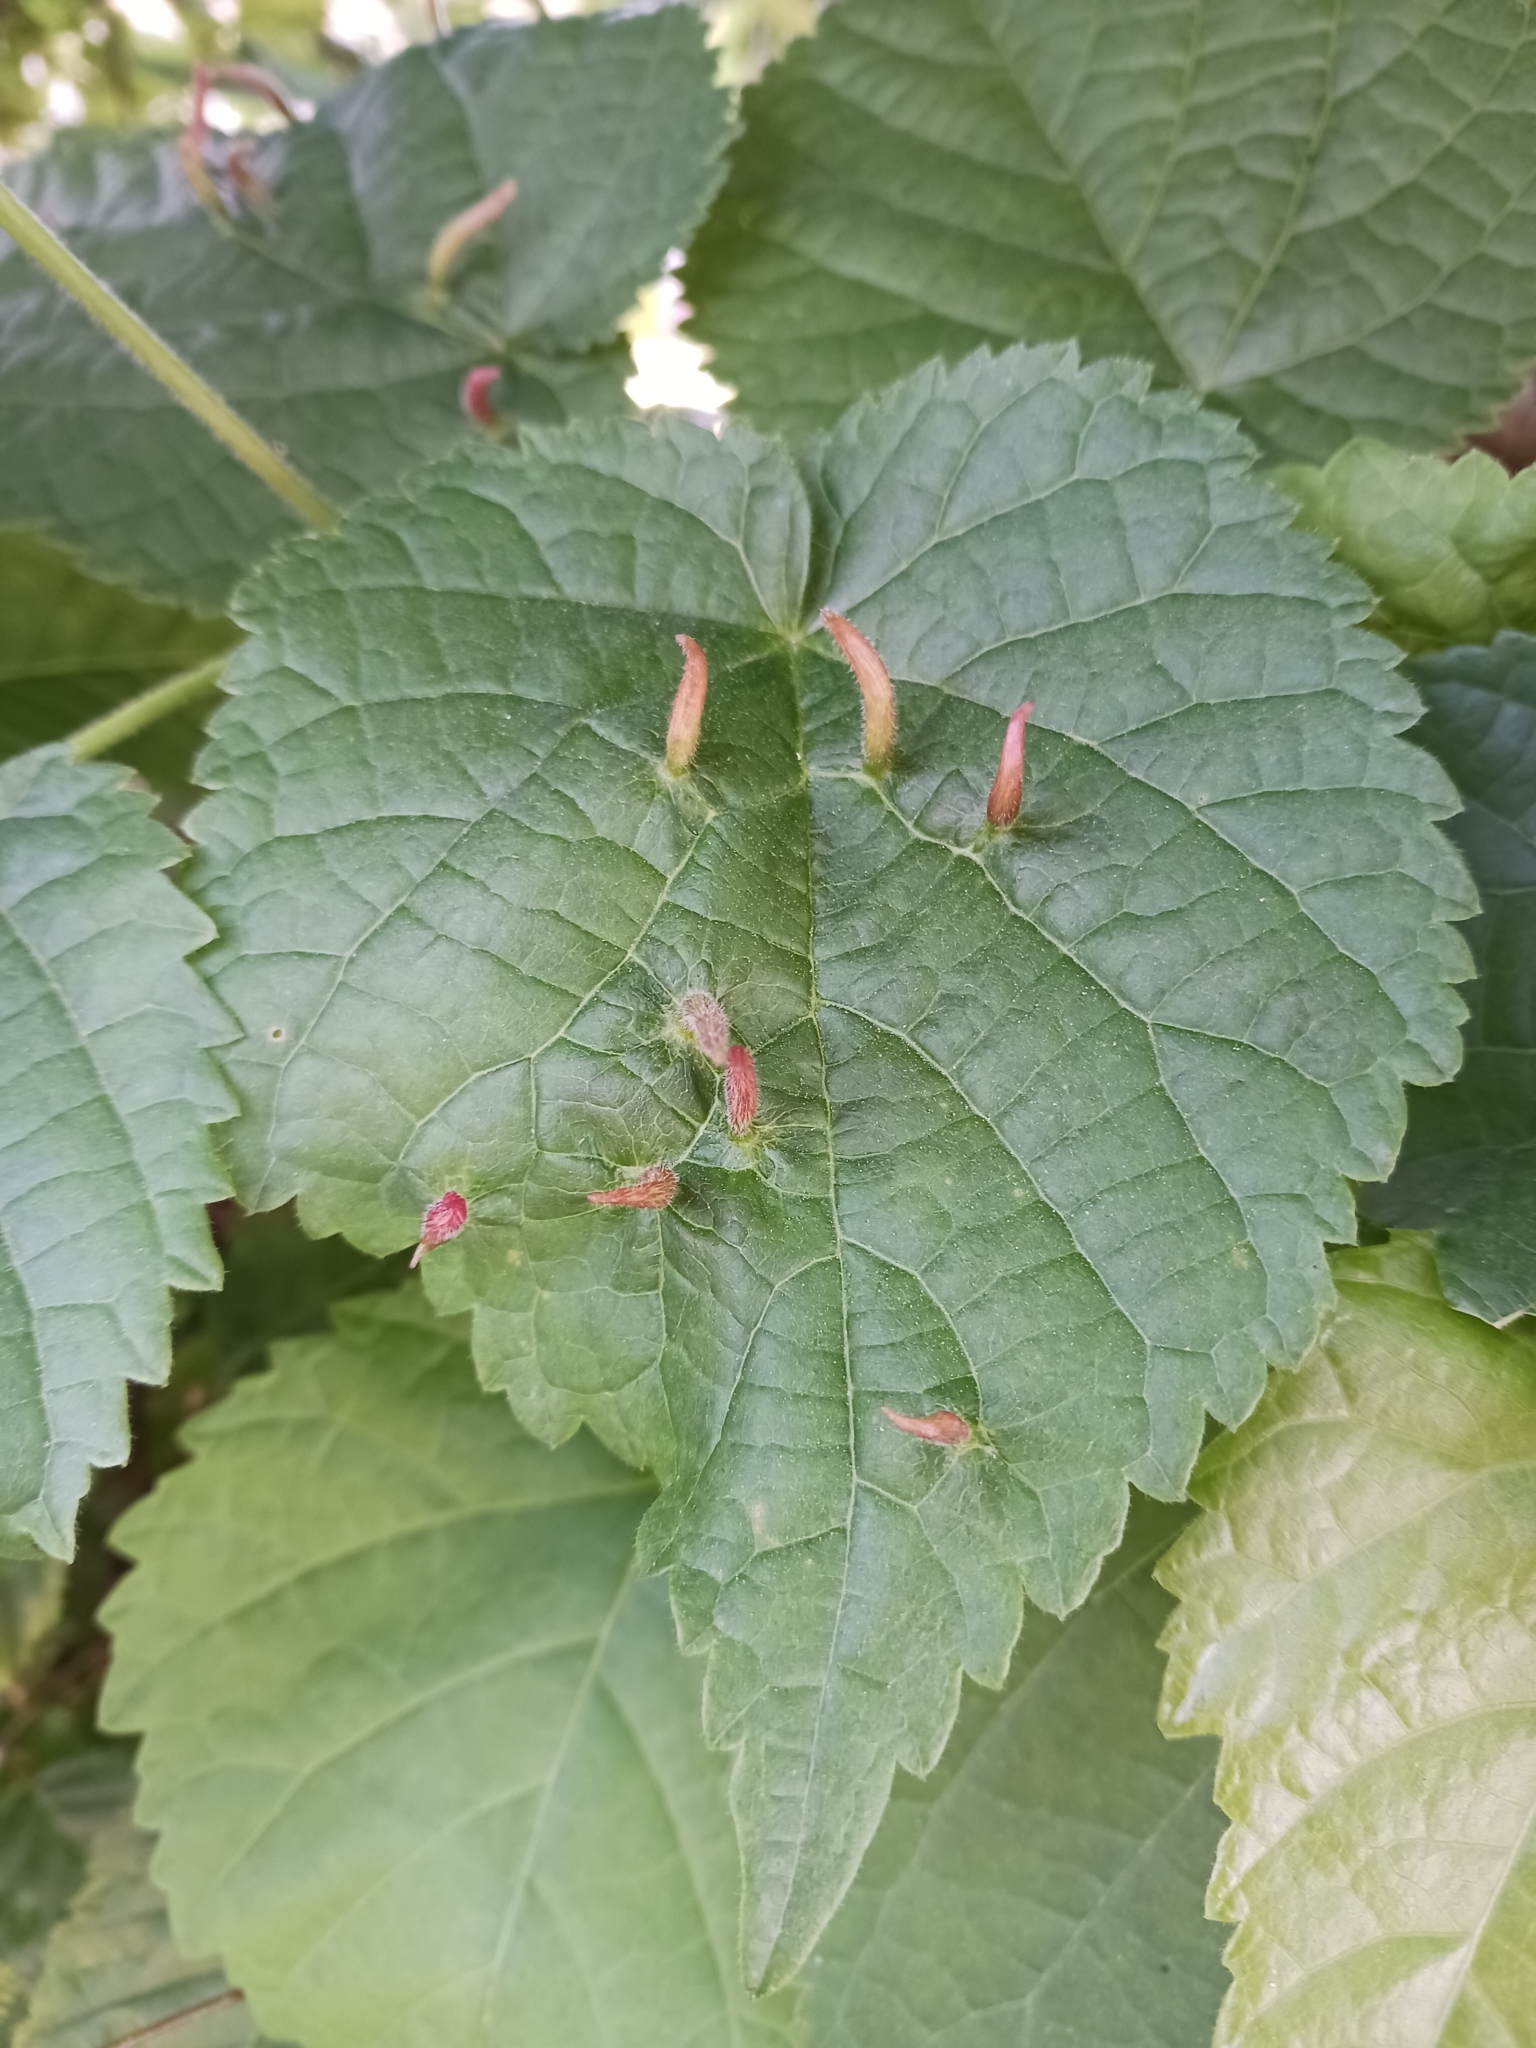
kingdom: Animalia
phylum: Arthropoda
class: Arachnida
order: Trombidiformes
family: Eriophyidae
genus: Eriophyes
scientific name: Eriophyes tiliae
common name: Red nail gall mite
